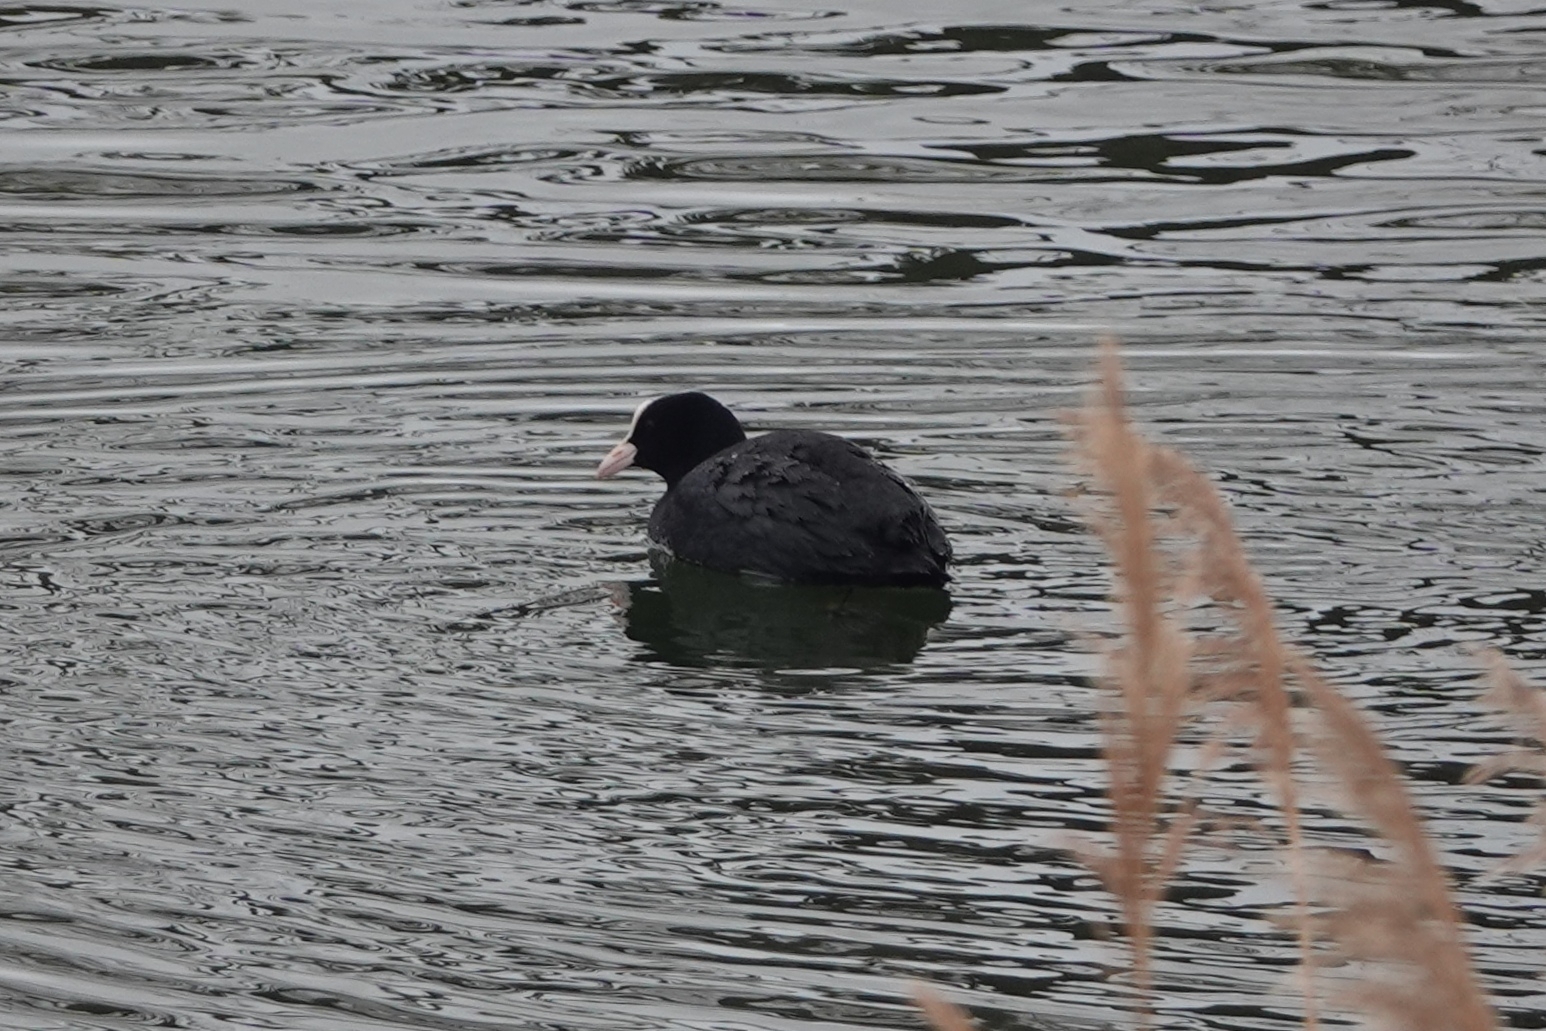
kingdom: Animalia
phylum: Chordata
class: Aves
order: Gruiformes
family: Rallidae
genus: Fulica
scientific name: Fulica atra
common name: Eurasian coot
